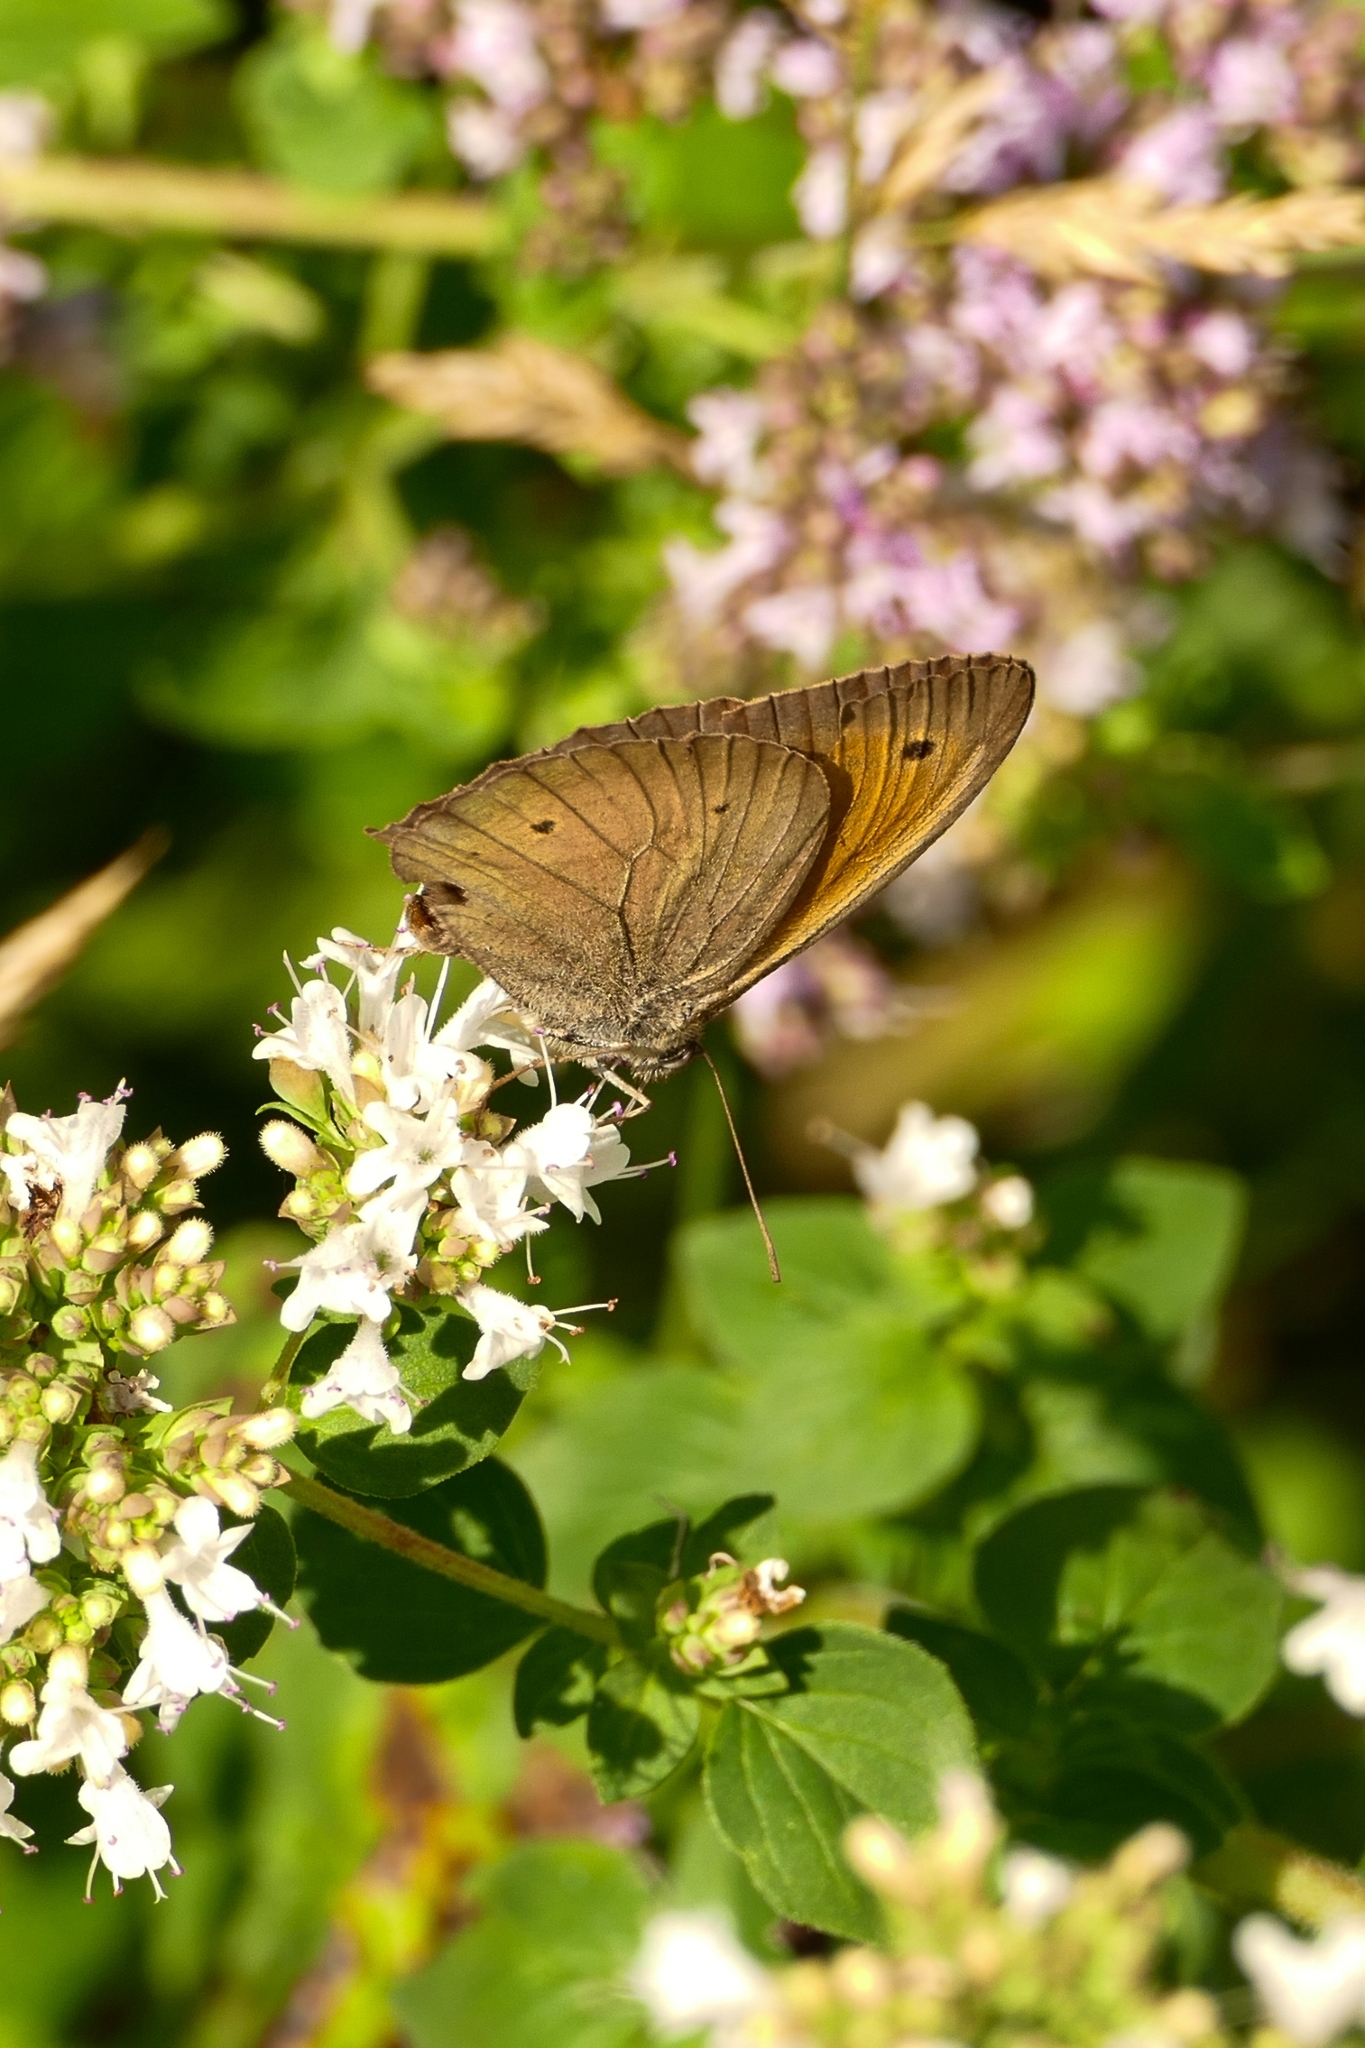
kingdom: Animalia
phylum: Arthropoda
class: Insecta
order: Lepidoptera
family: Nymphalidae
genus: Maniola
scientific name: Maniola jurtina
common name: Meadow brown
